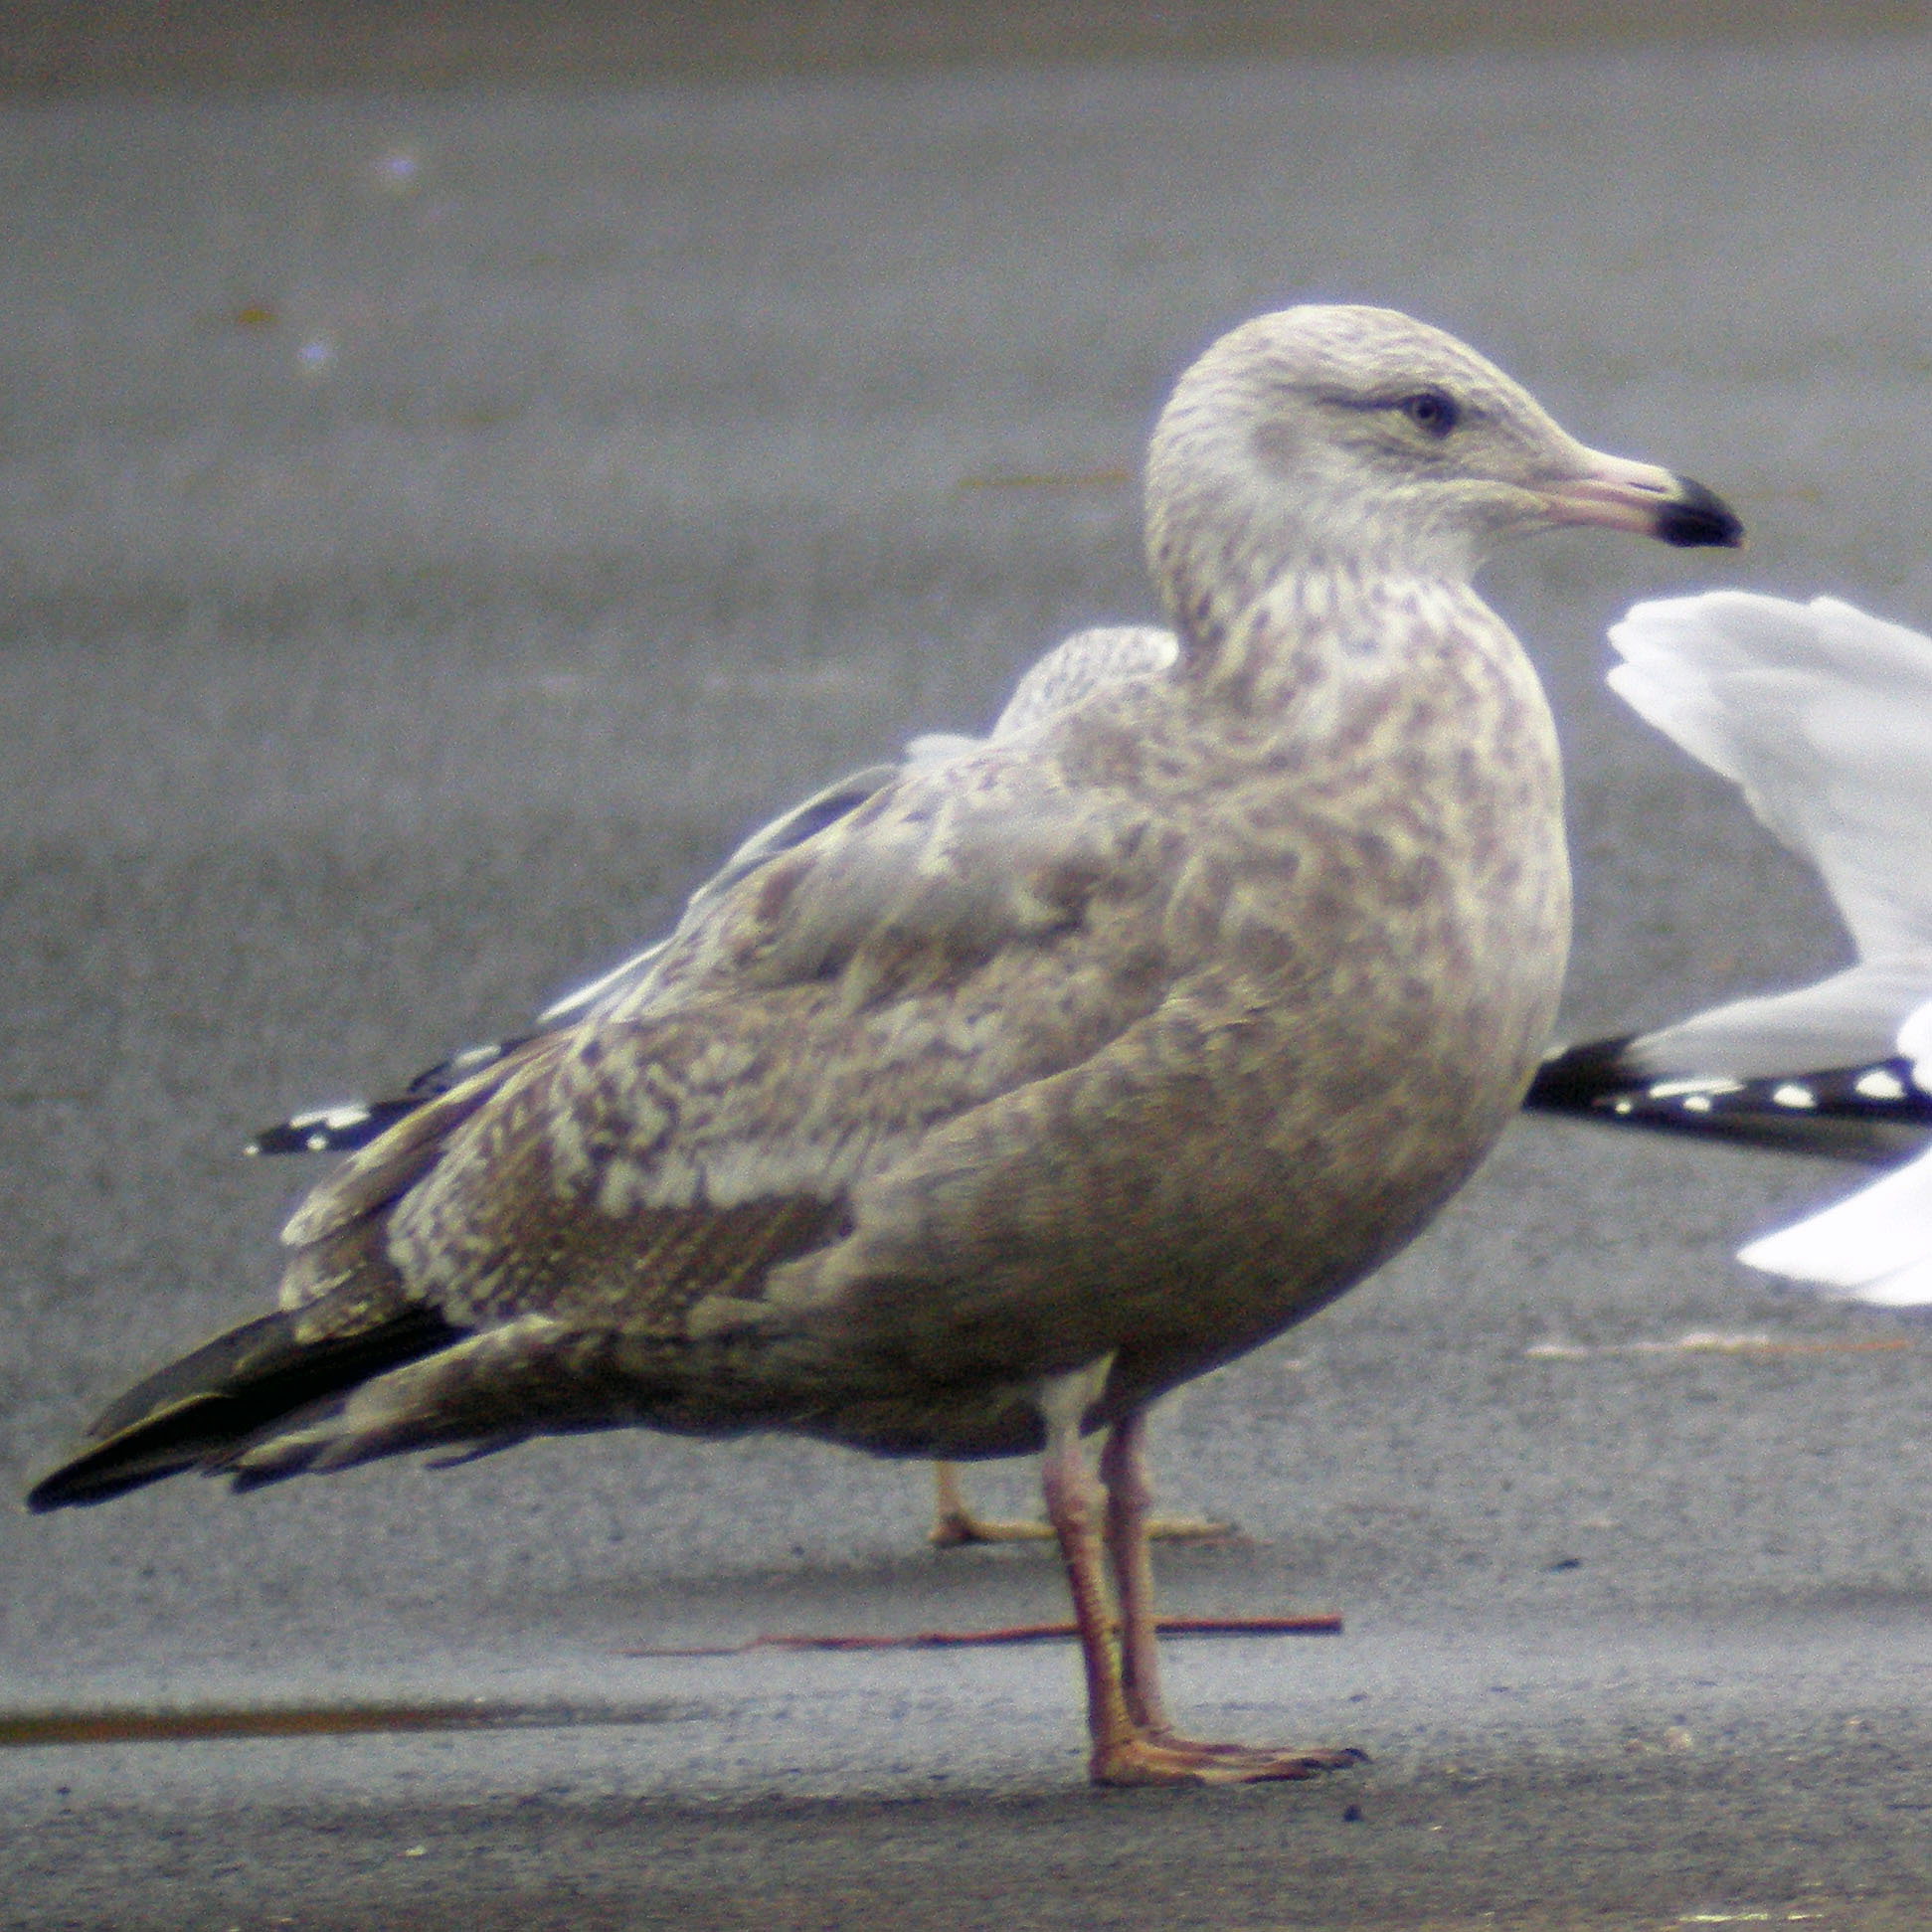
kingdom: Animalia
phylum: Chordata
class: Aves
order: Charadriiformes
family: Laridae
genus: Larus
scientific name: Larus argentatus
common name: Herring gull
